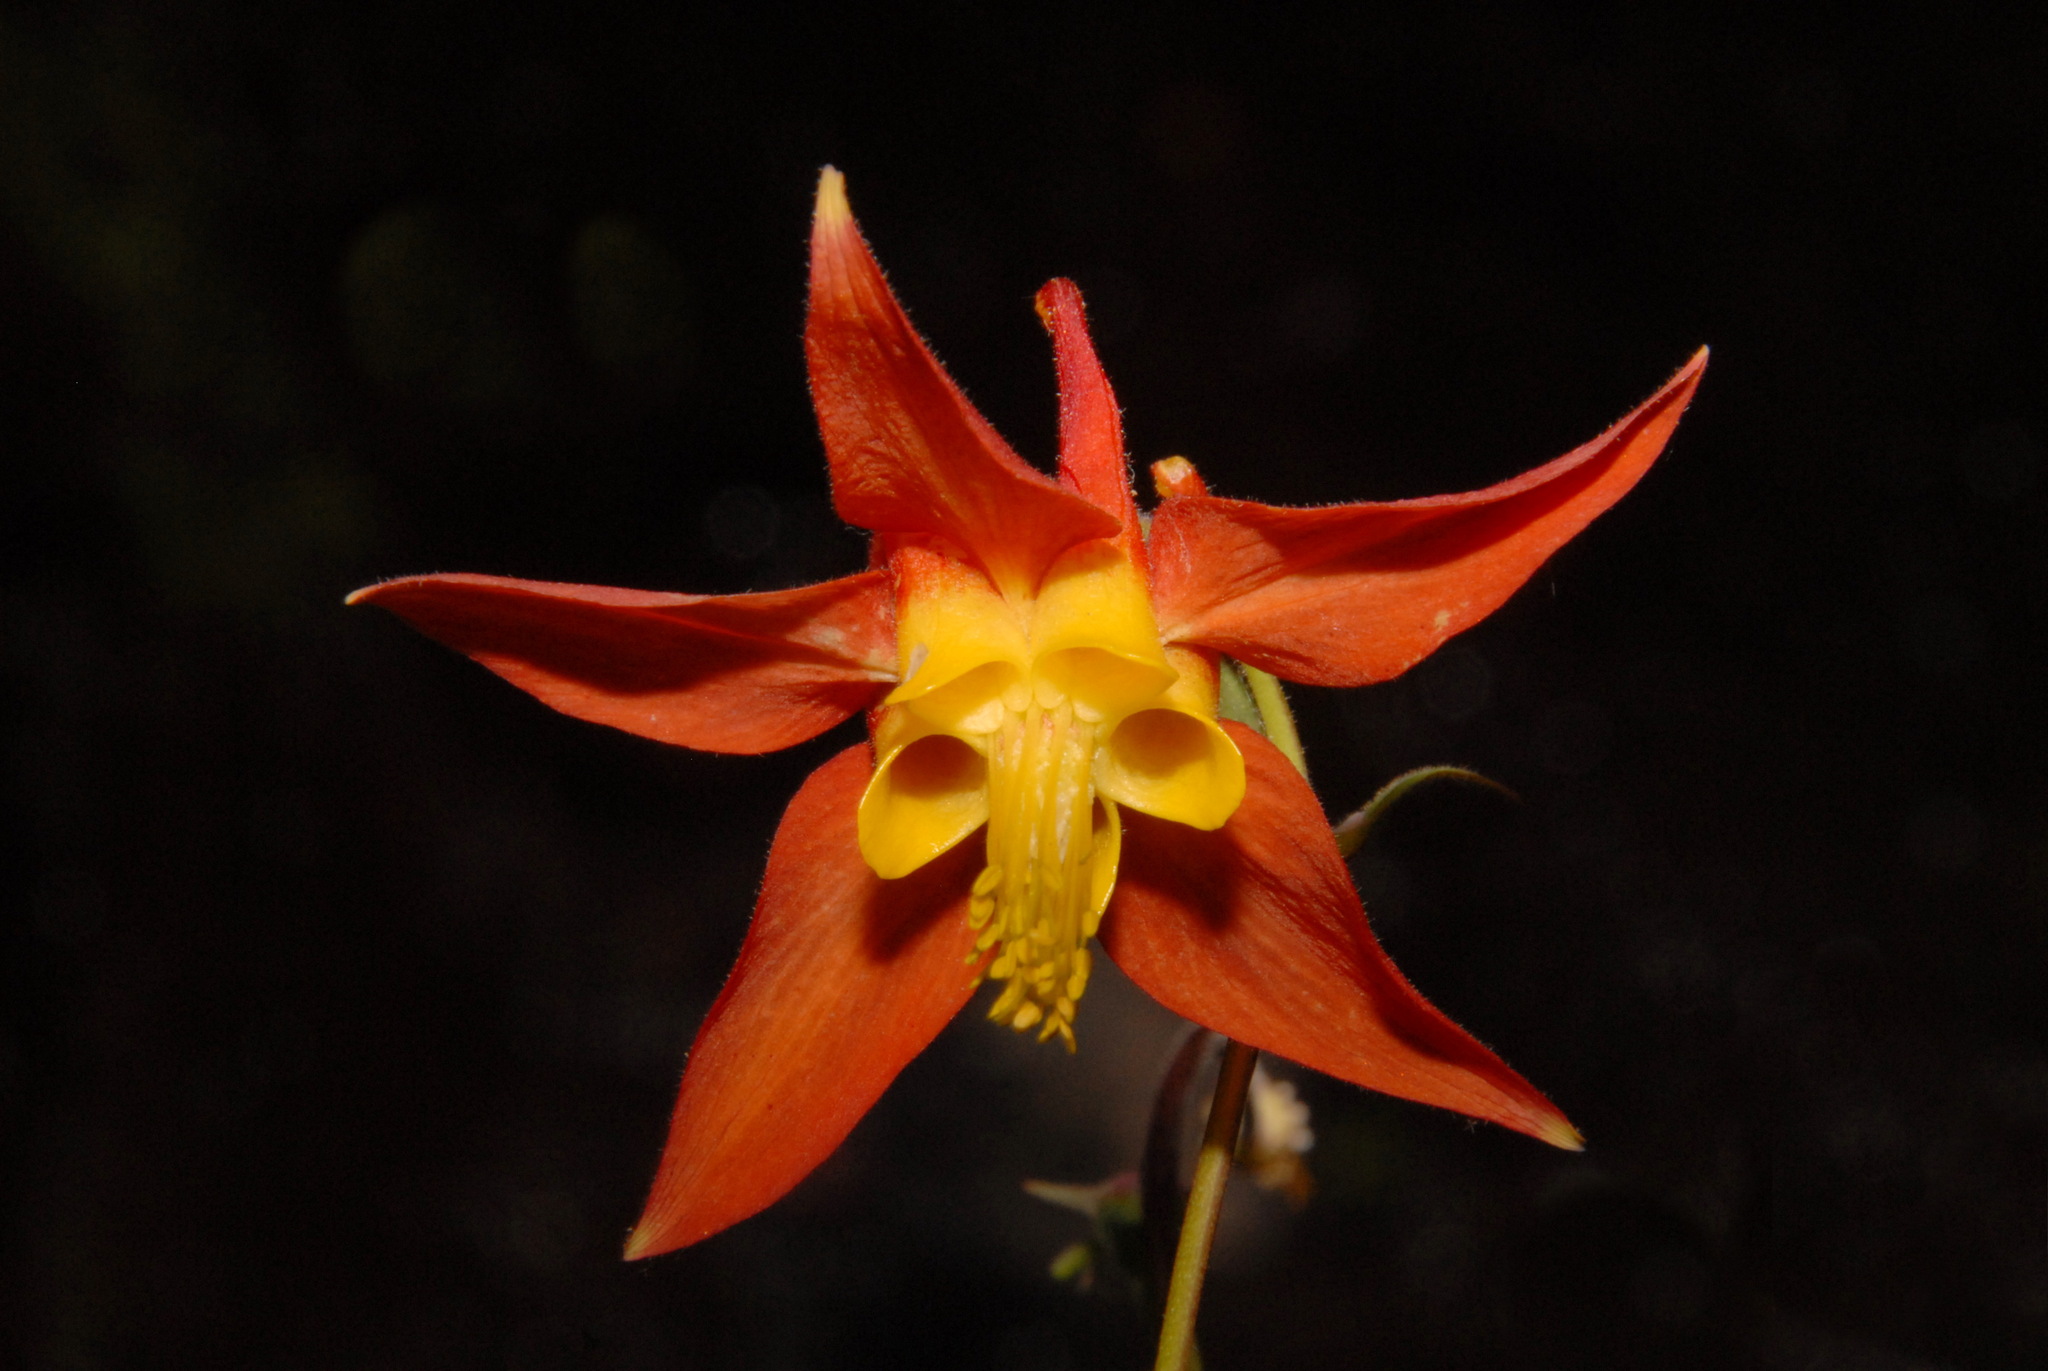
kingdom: Plantae
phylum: Tracheophyta
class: Magnoliopsida
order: Ranunculales
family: Ranunculaceae
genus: Aquilegia
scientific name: Aquilegia formosa
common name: Sitka columbine
